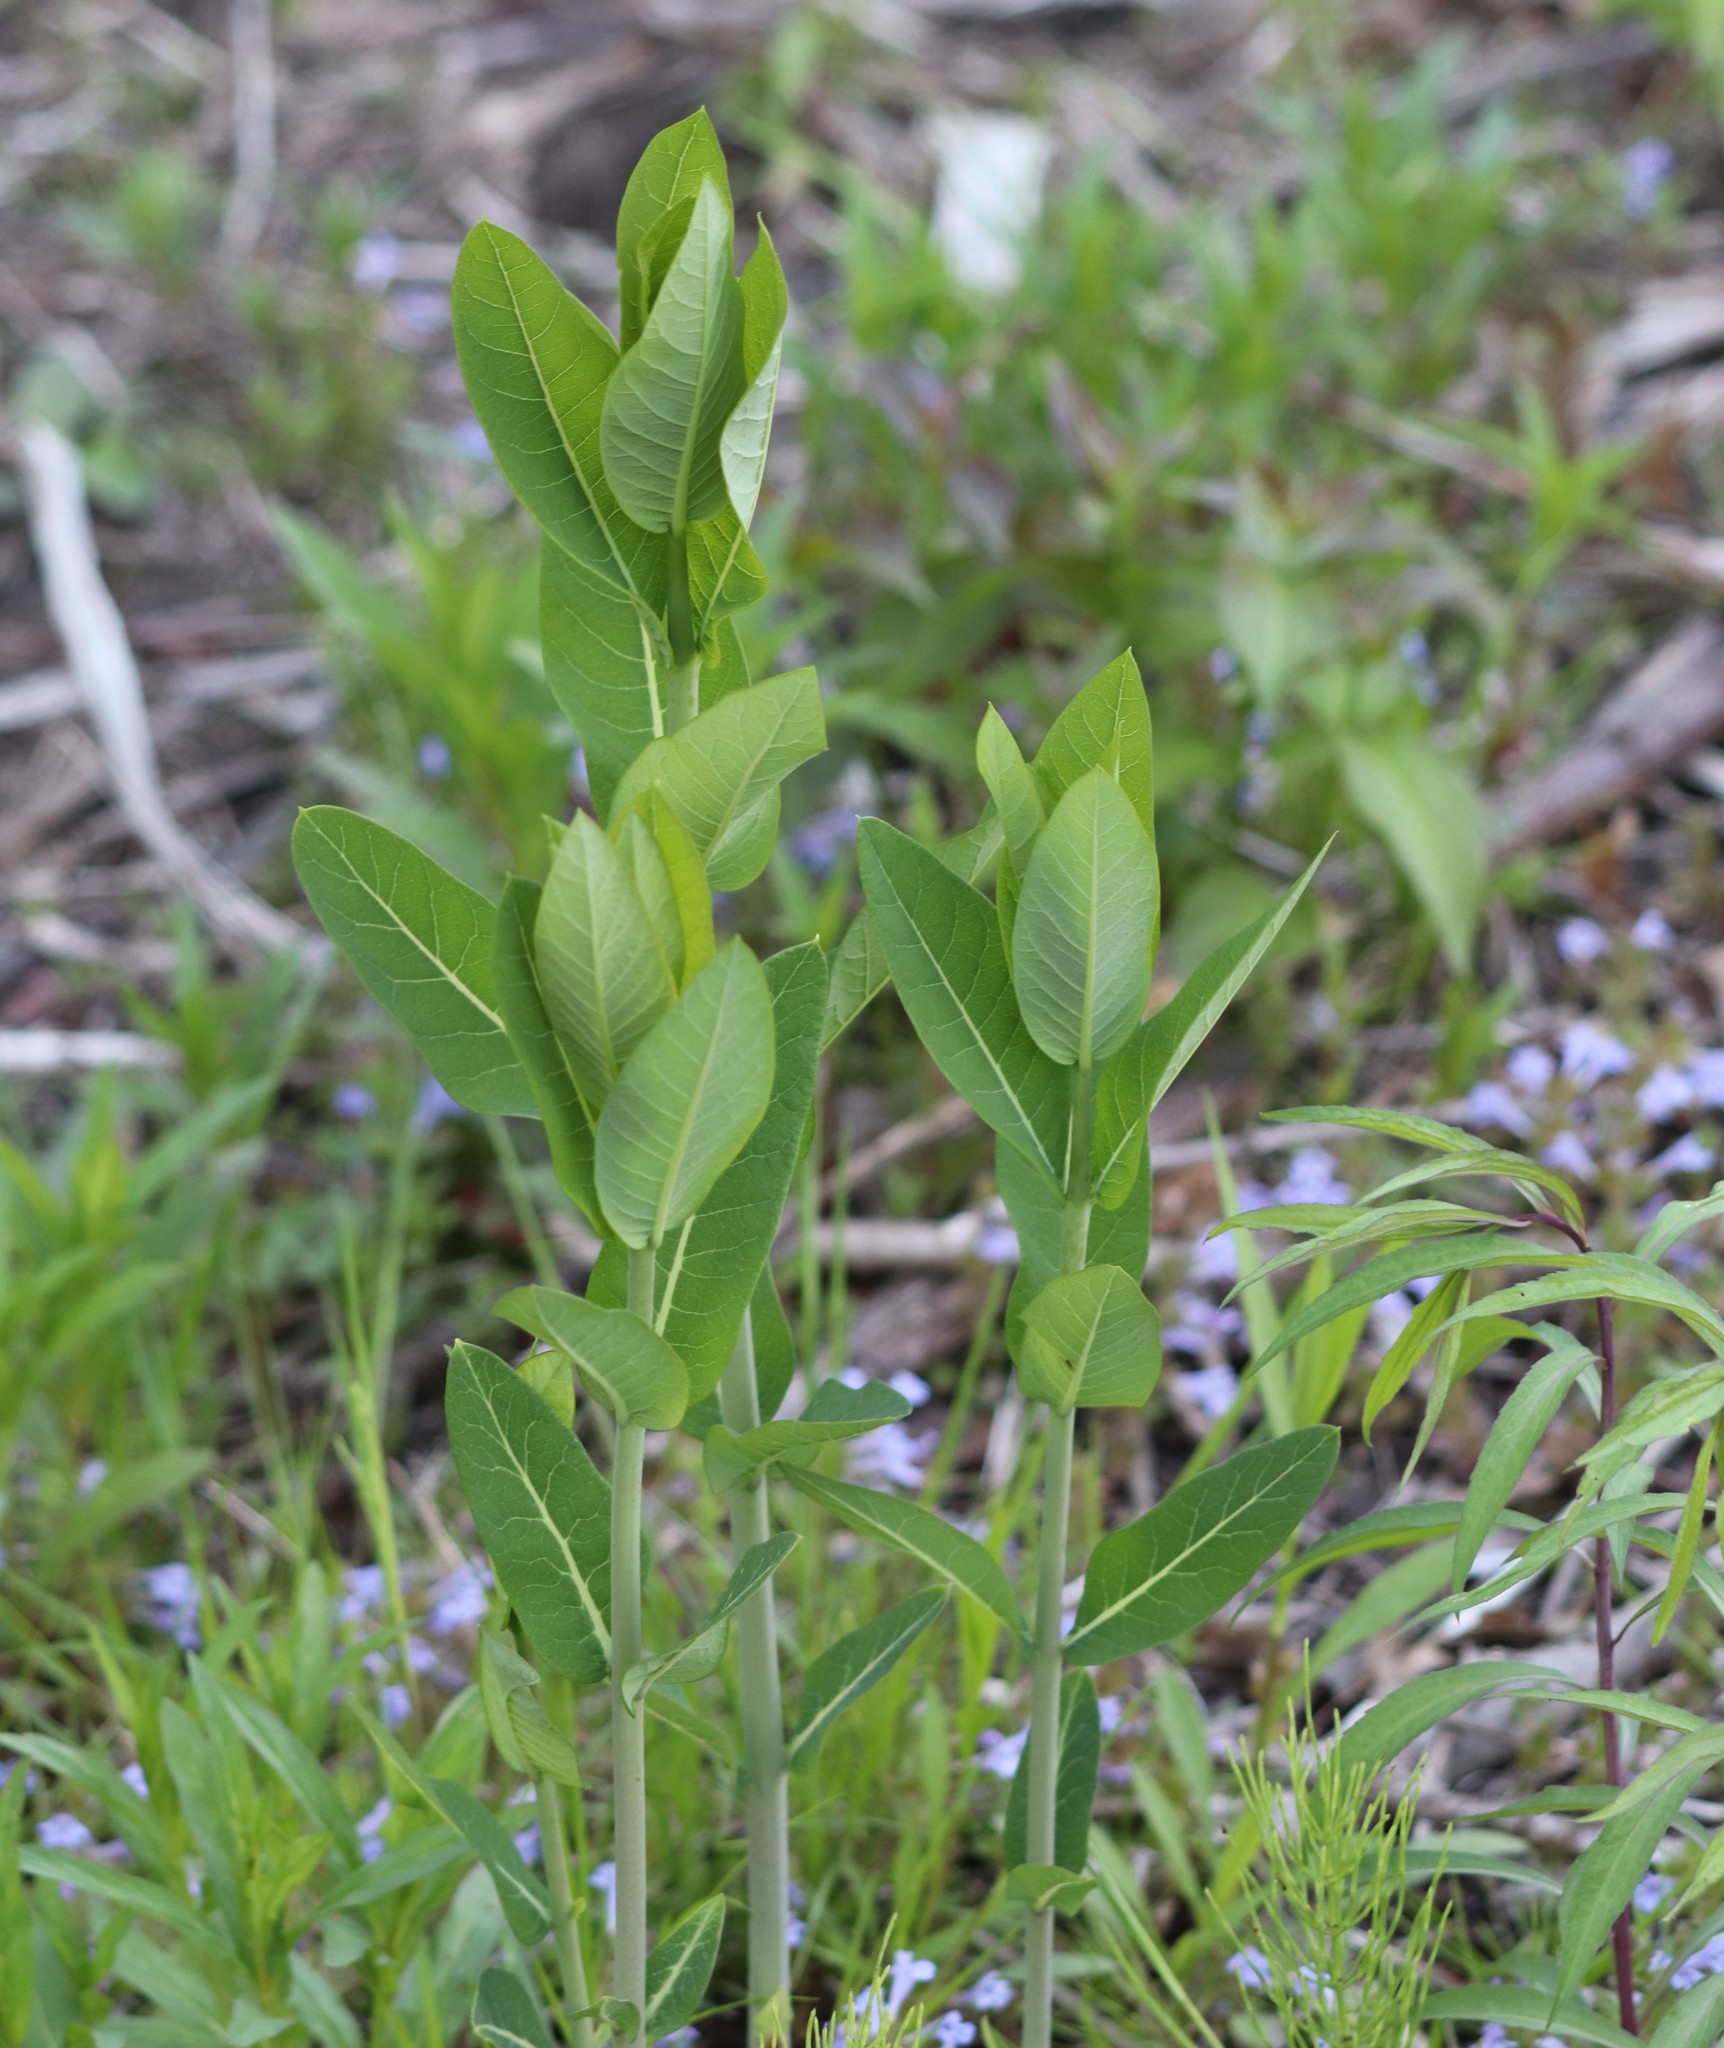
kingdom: Plantae
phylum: Tracheophyta
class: Magnoliopsida
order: Gentianales
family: Apocynaceae
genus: Apocynum
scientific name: Apocynum cannabinum
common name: Hemp dogbane
